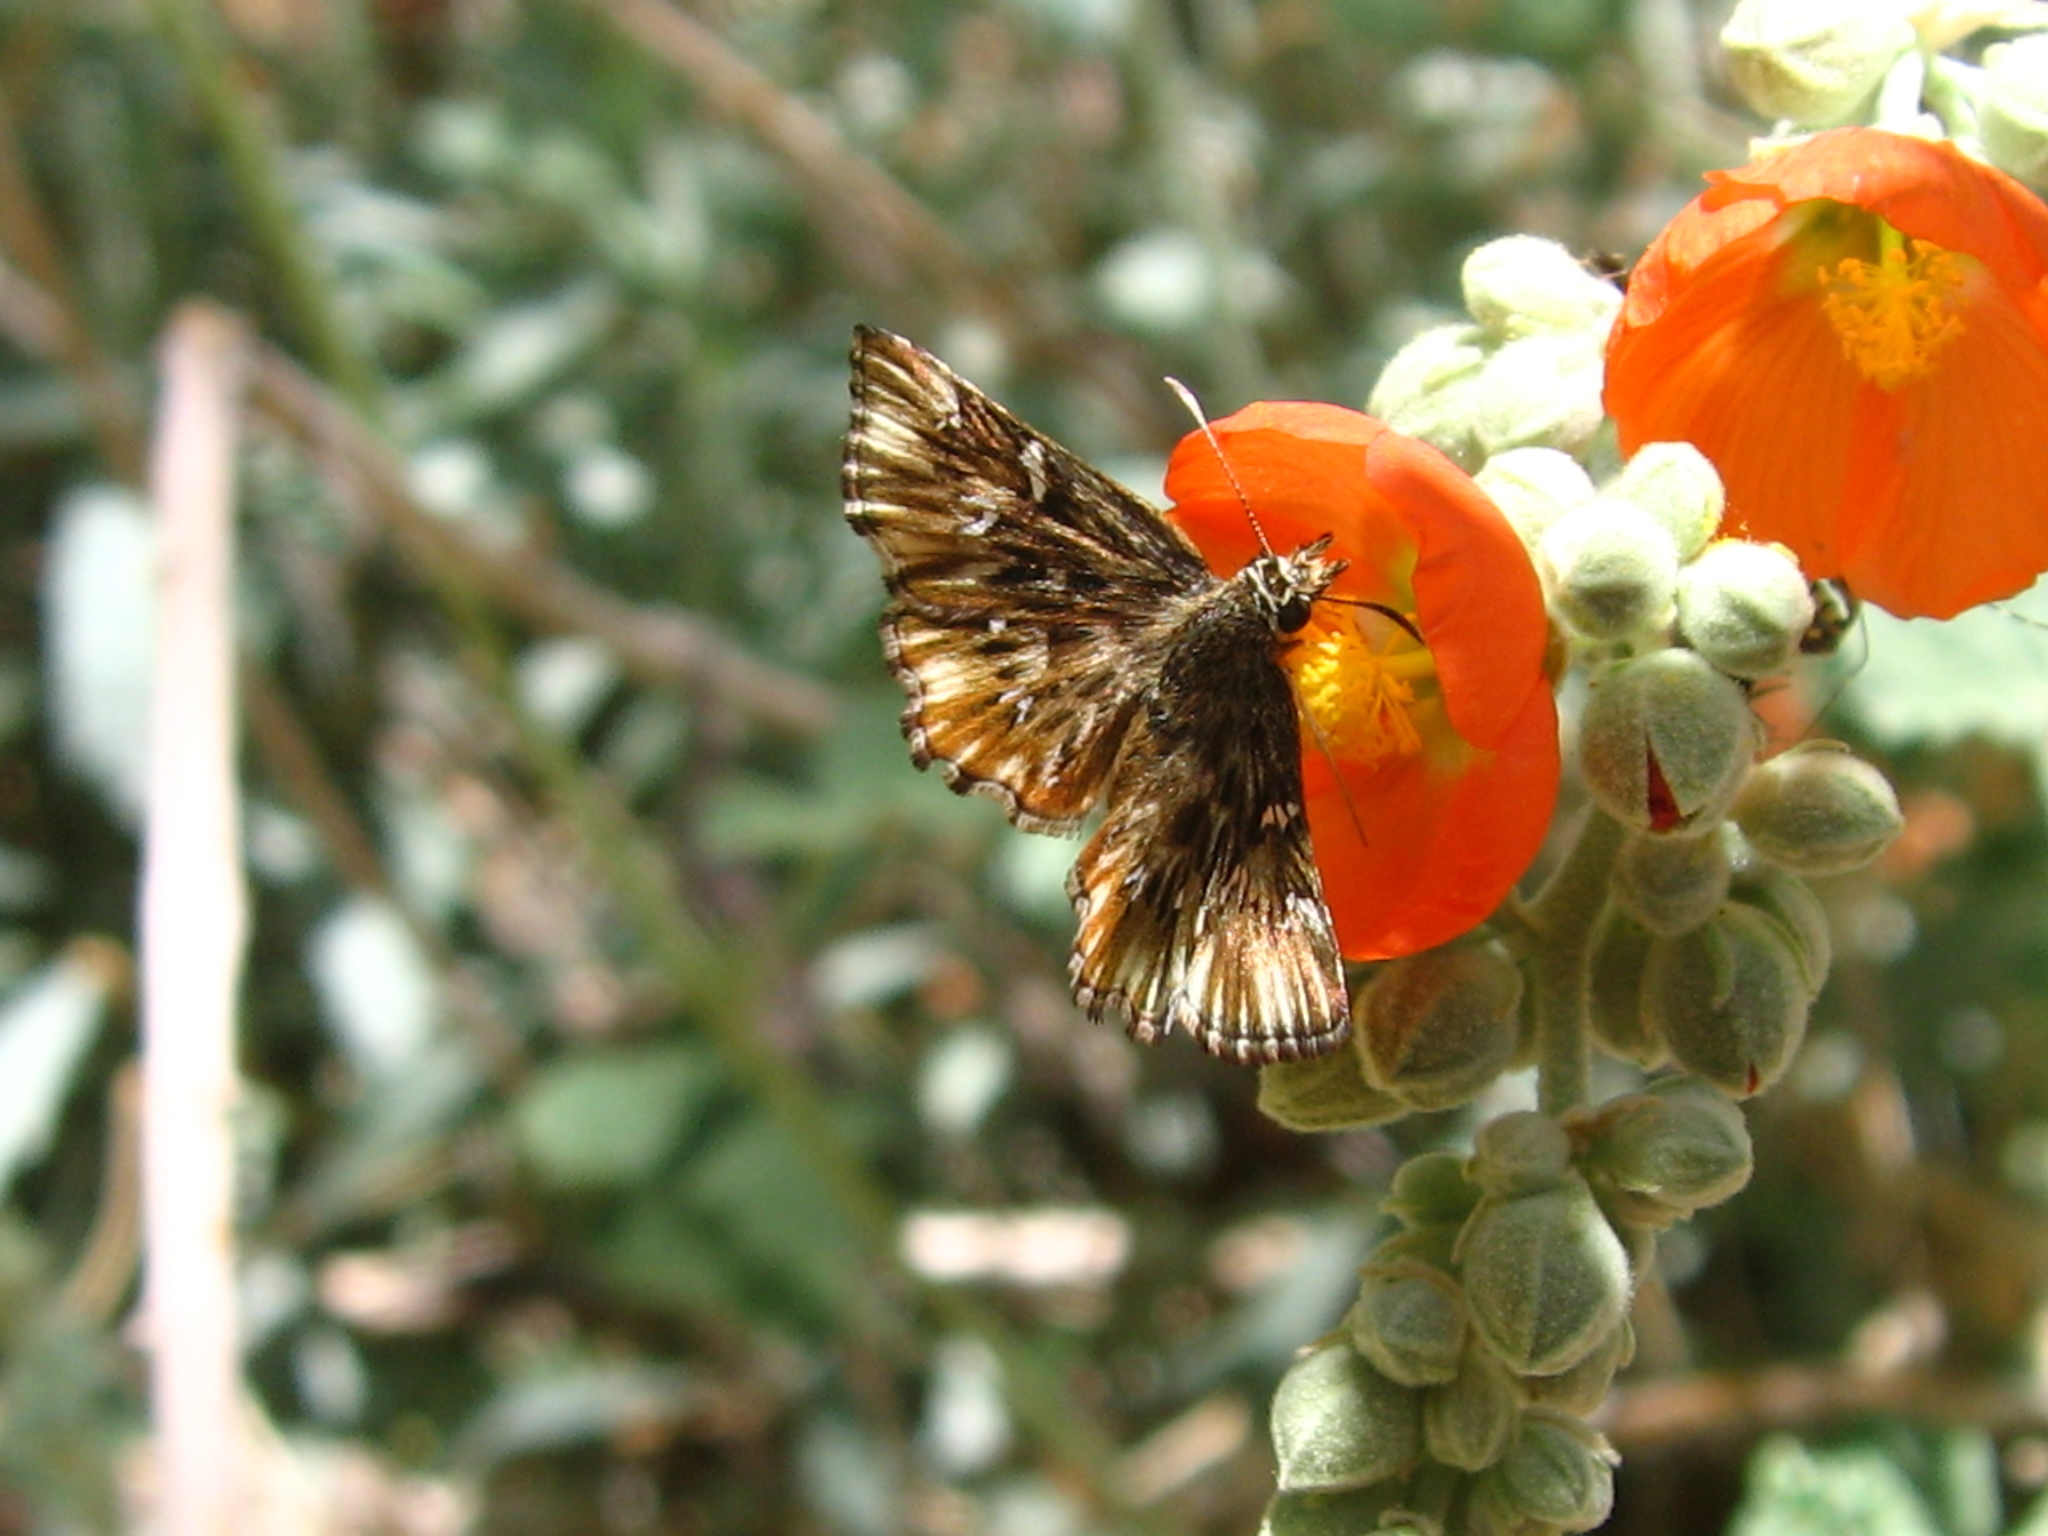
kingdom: Animalia
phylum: Arthropoda
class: Insecta
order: Lepidoptera
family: Hesperiidae
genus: Celotes
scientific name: Celotes nessus
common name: Common streaky-skipper
